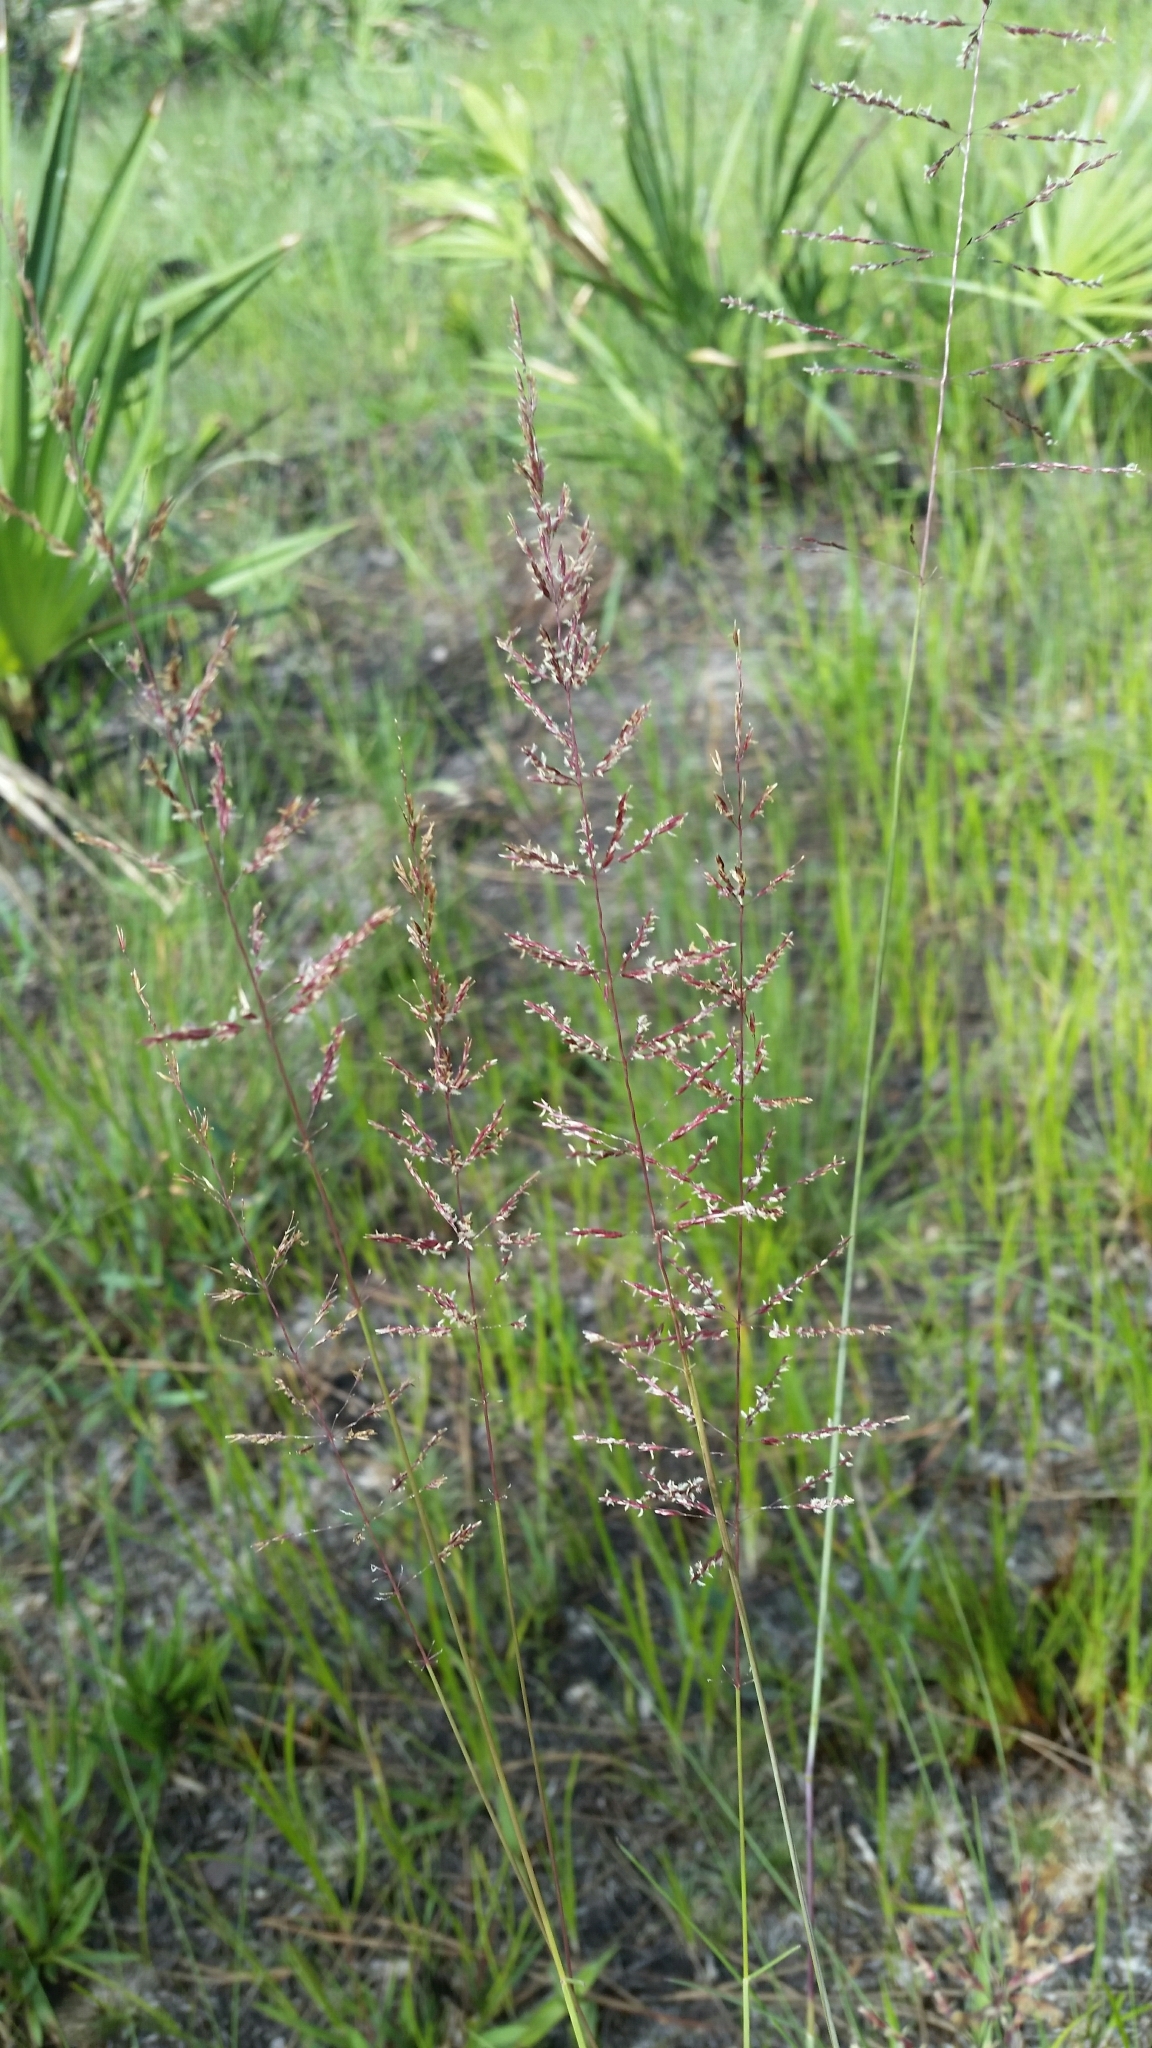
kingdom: Plantae
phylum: Tracheophyta
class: Liliopsida
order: Poales
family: Poaceae
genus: Sporobolus
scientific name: Sporobolus junceus
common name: Lizard grass
